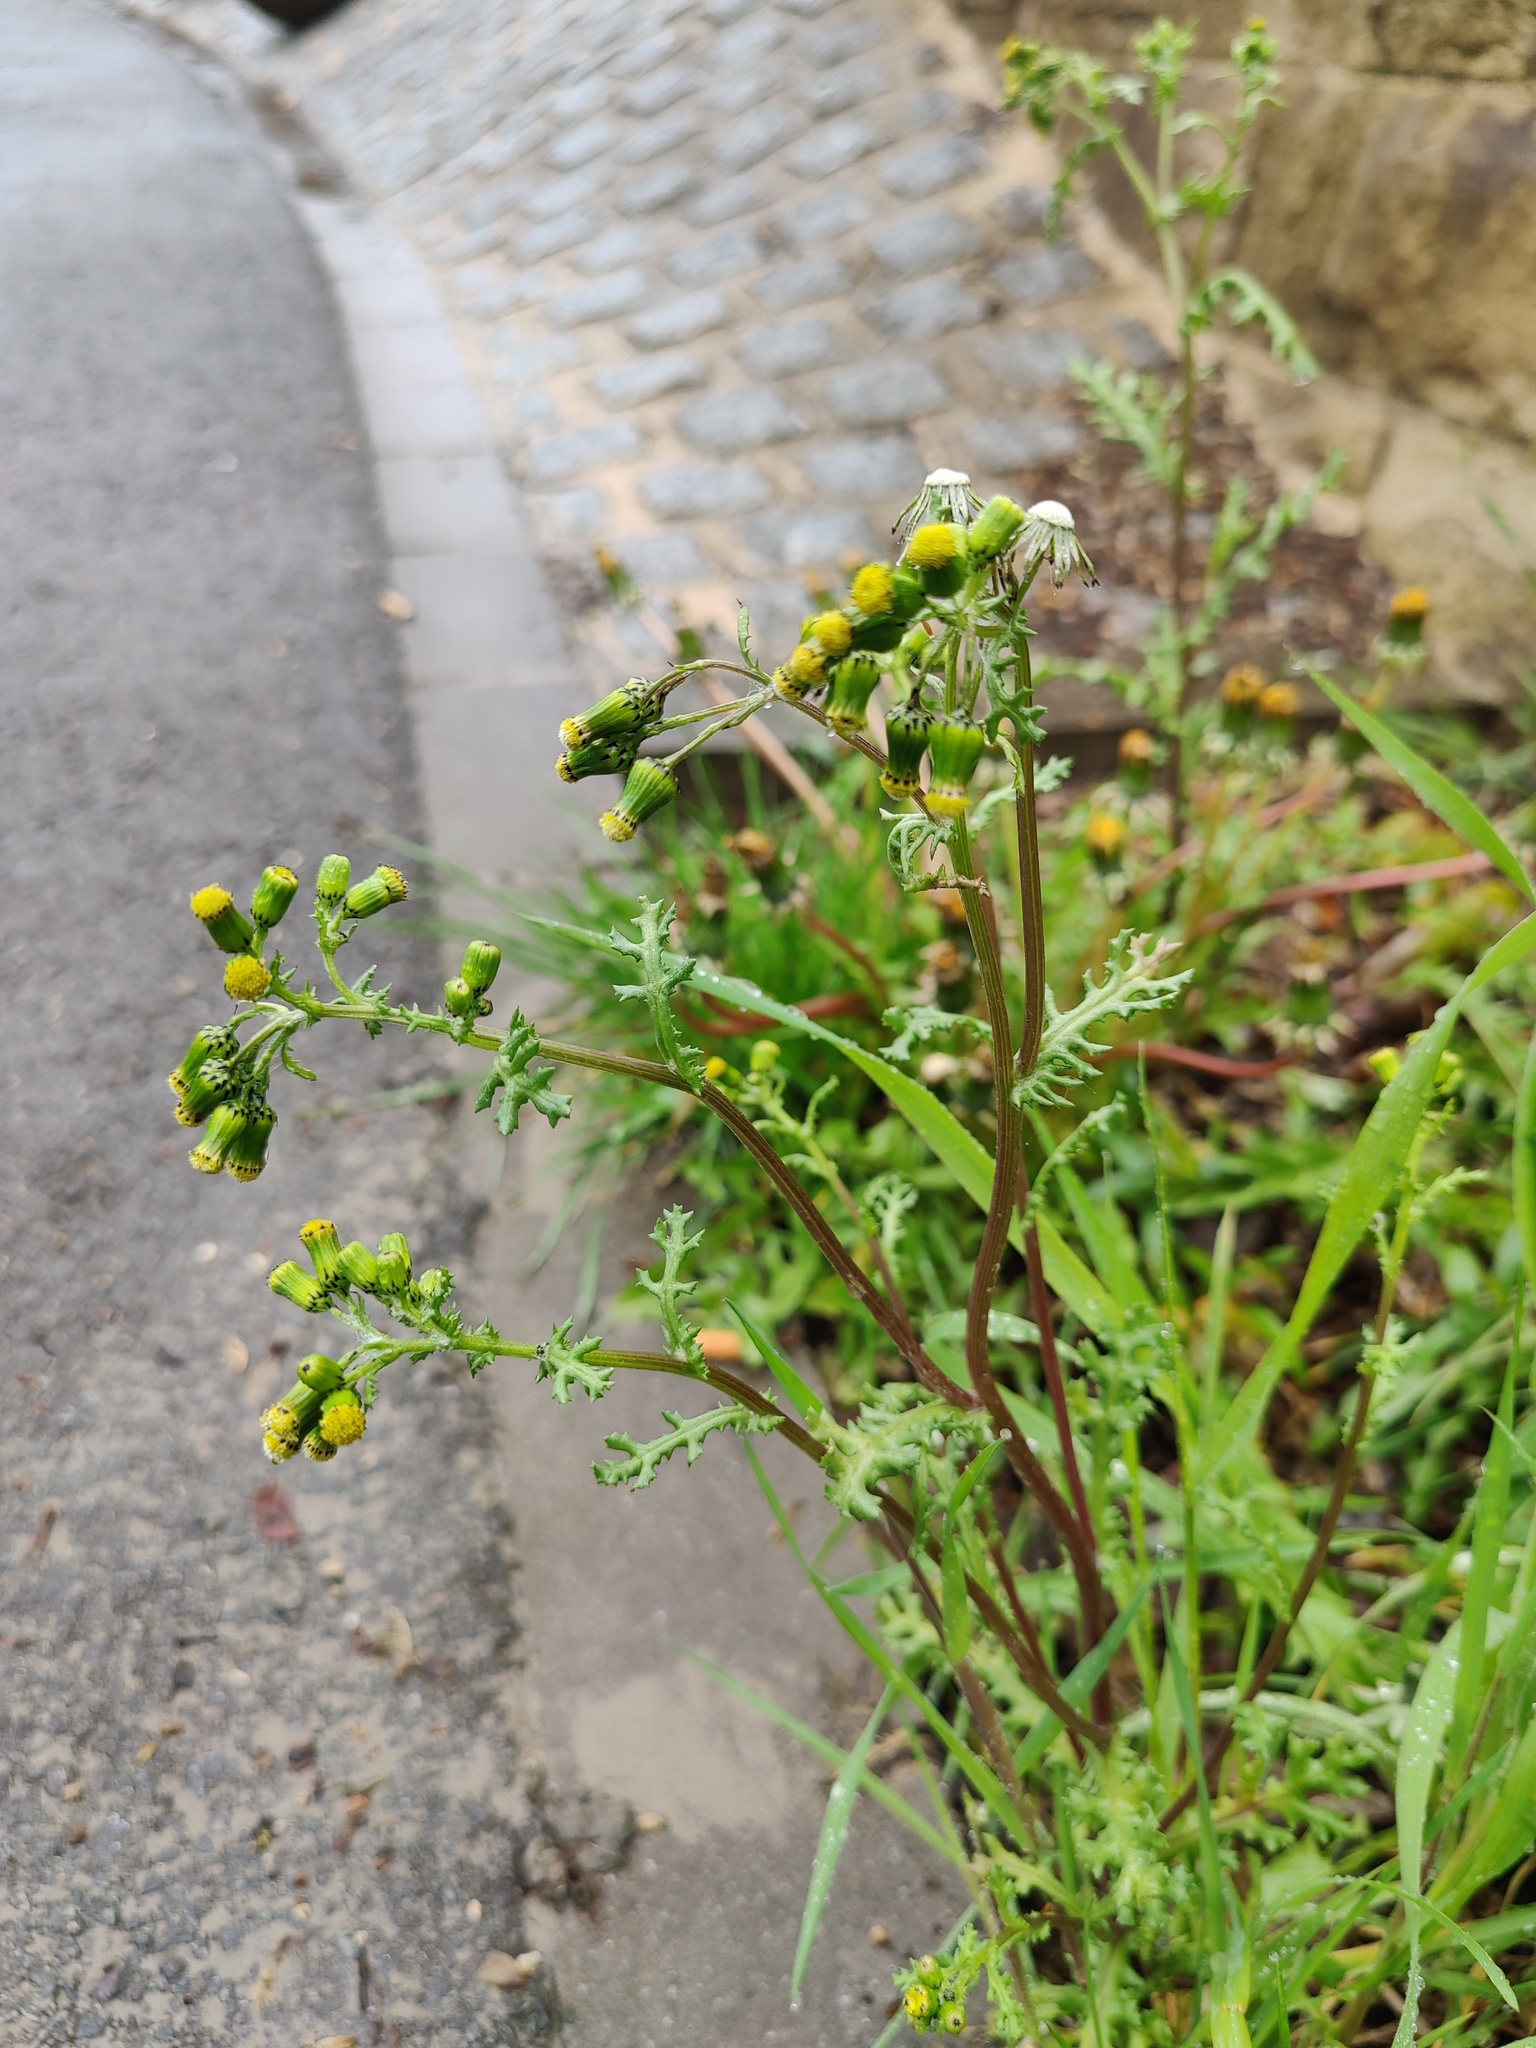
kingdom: Plantae
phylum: Tracheophyta
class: Magnoliopsida
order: Asterales
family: Asteraceae
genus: Senecio
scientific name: Senecio vulgaris
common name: Old-man-in-the-spring
